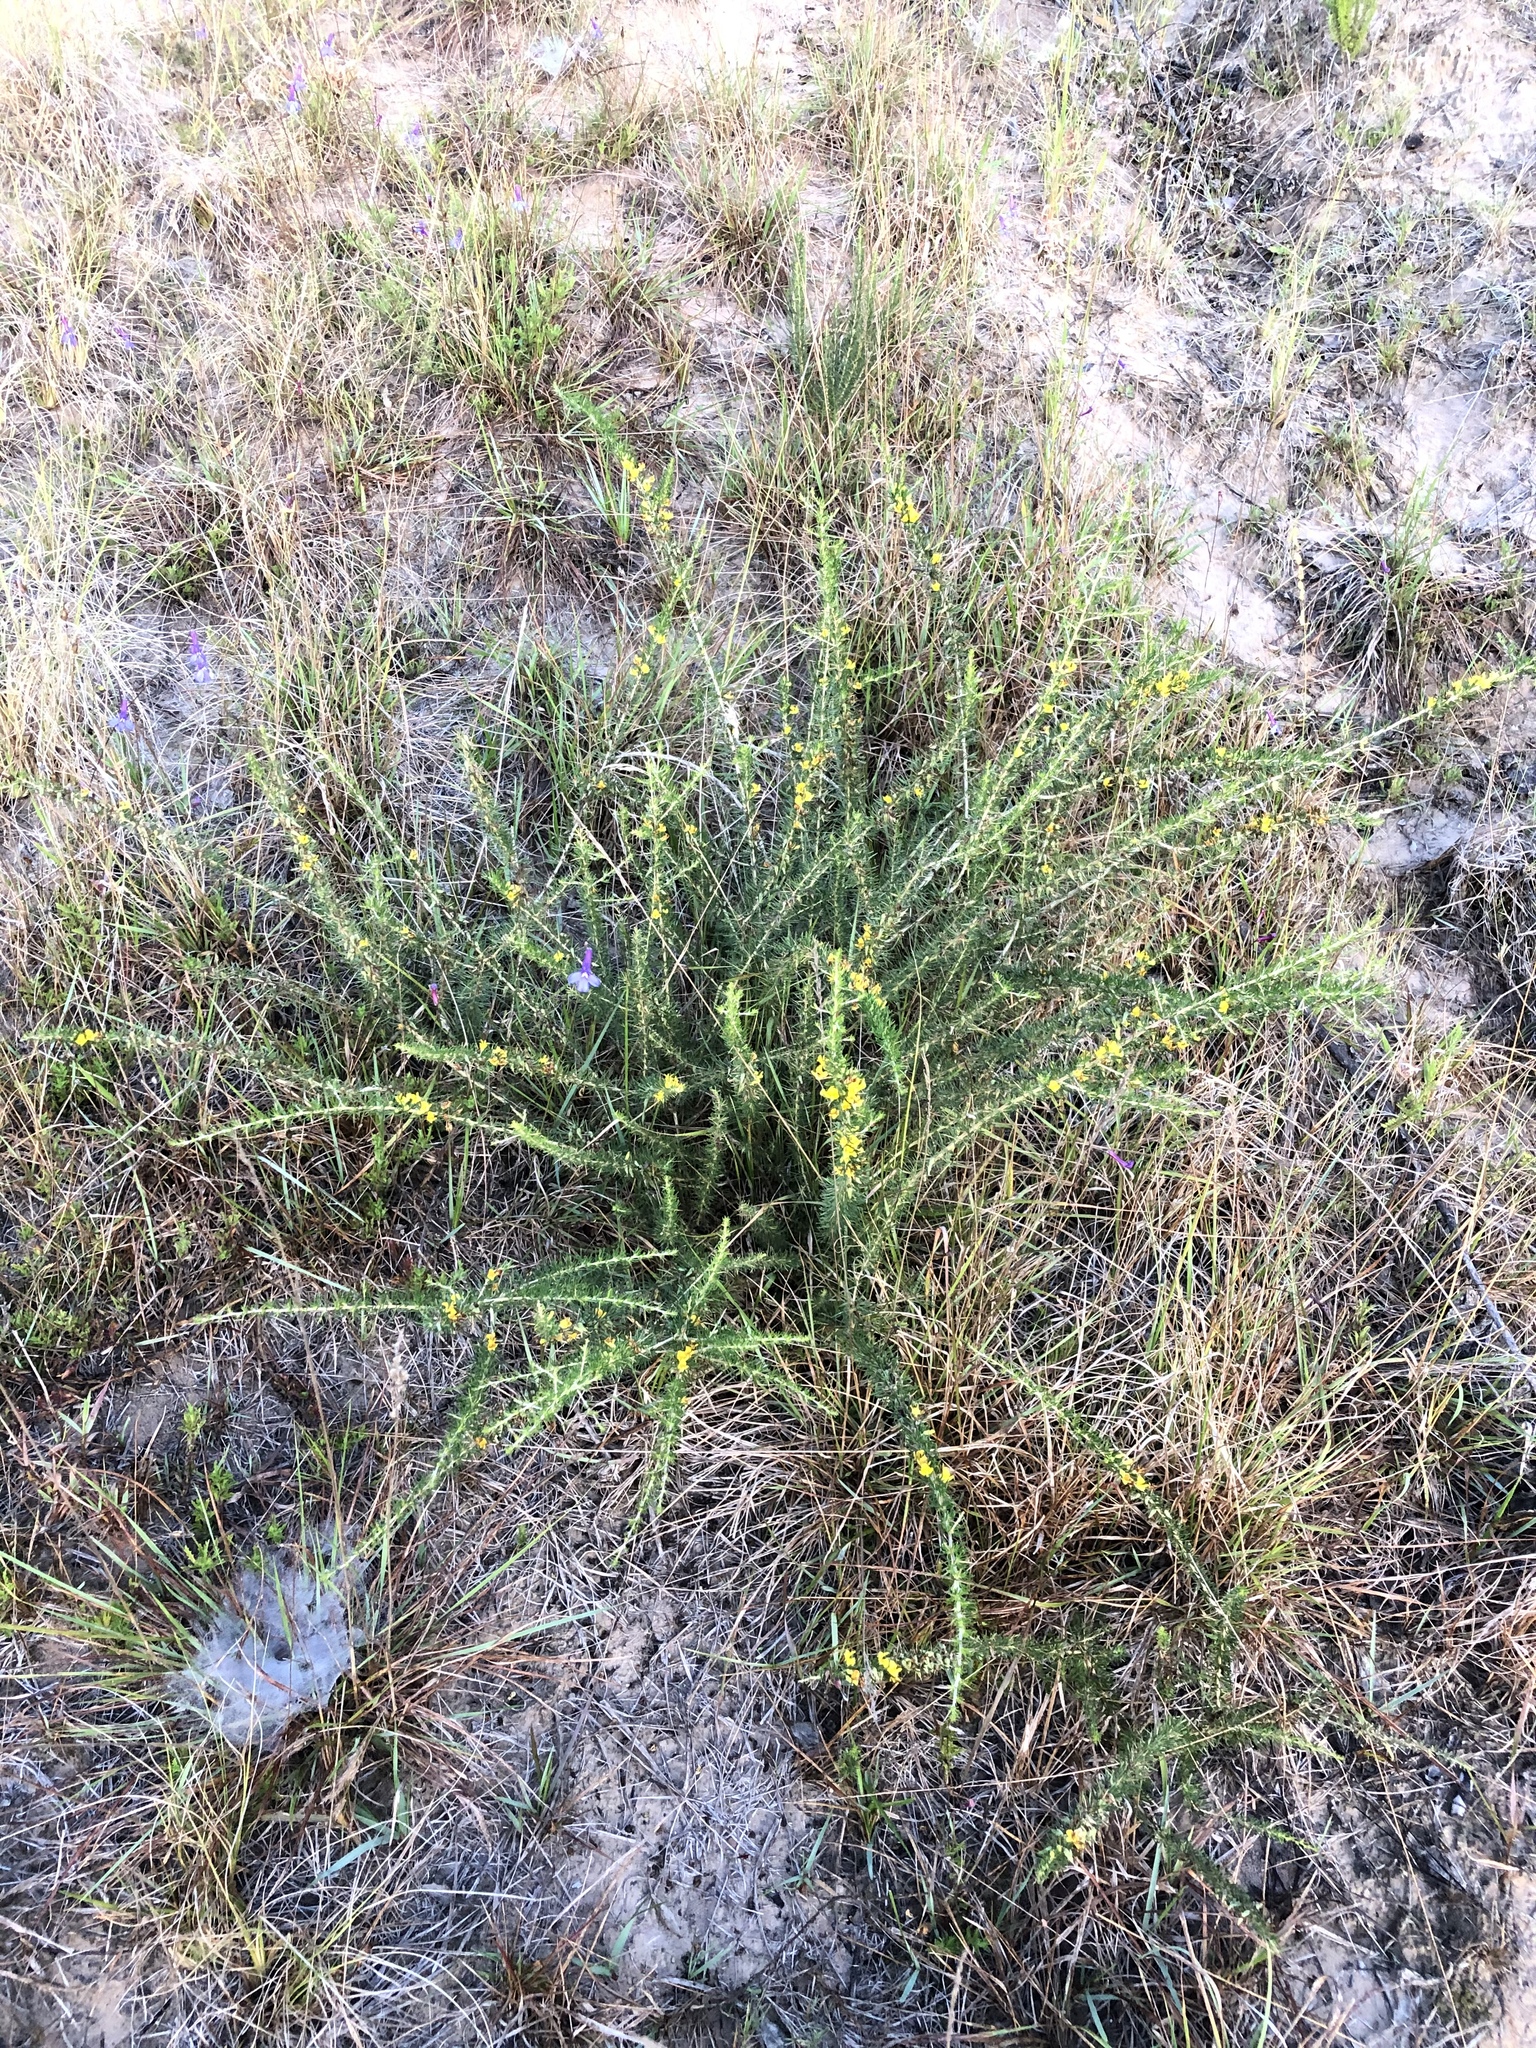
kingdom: Plantae
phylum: Tracheophyta
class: Magnoliopsida
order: Fabales
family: Fabaceae
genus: Aspalathus
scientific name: Aspalathus spinosa
